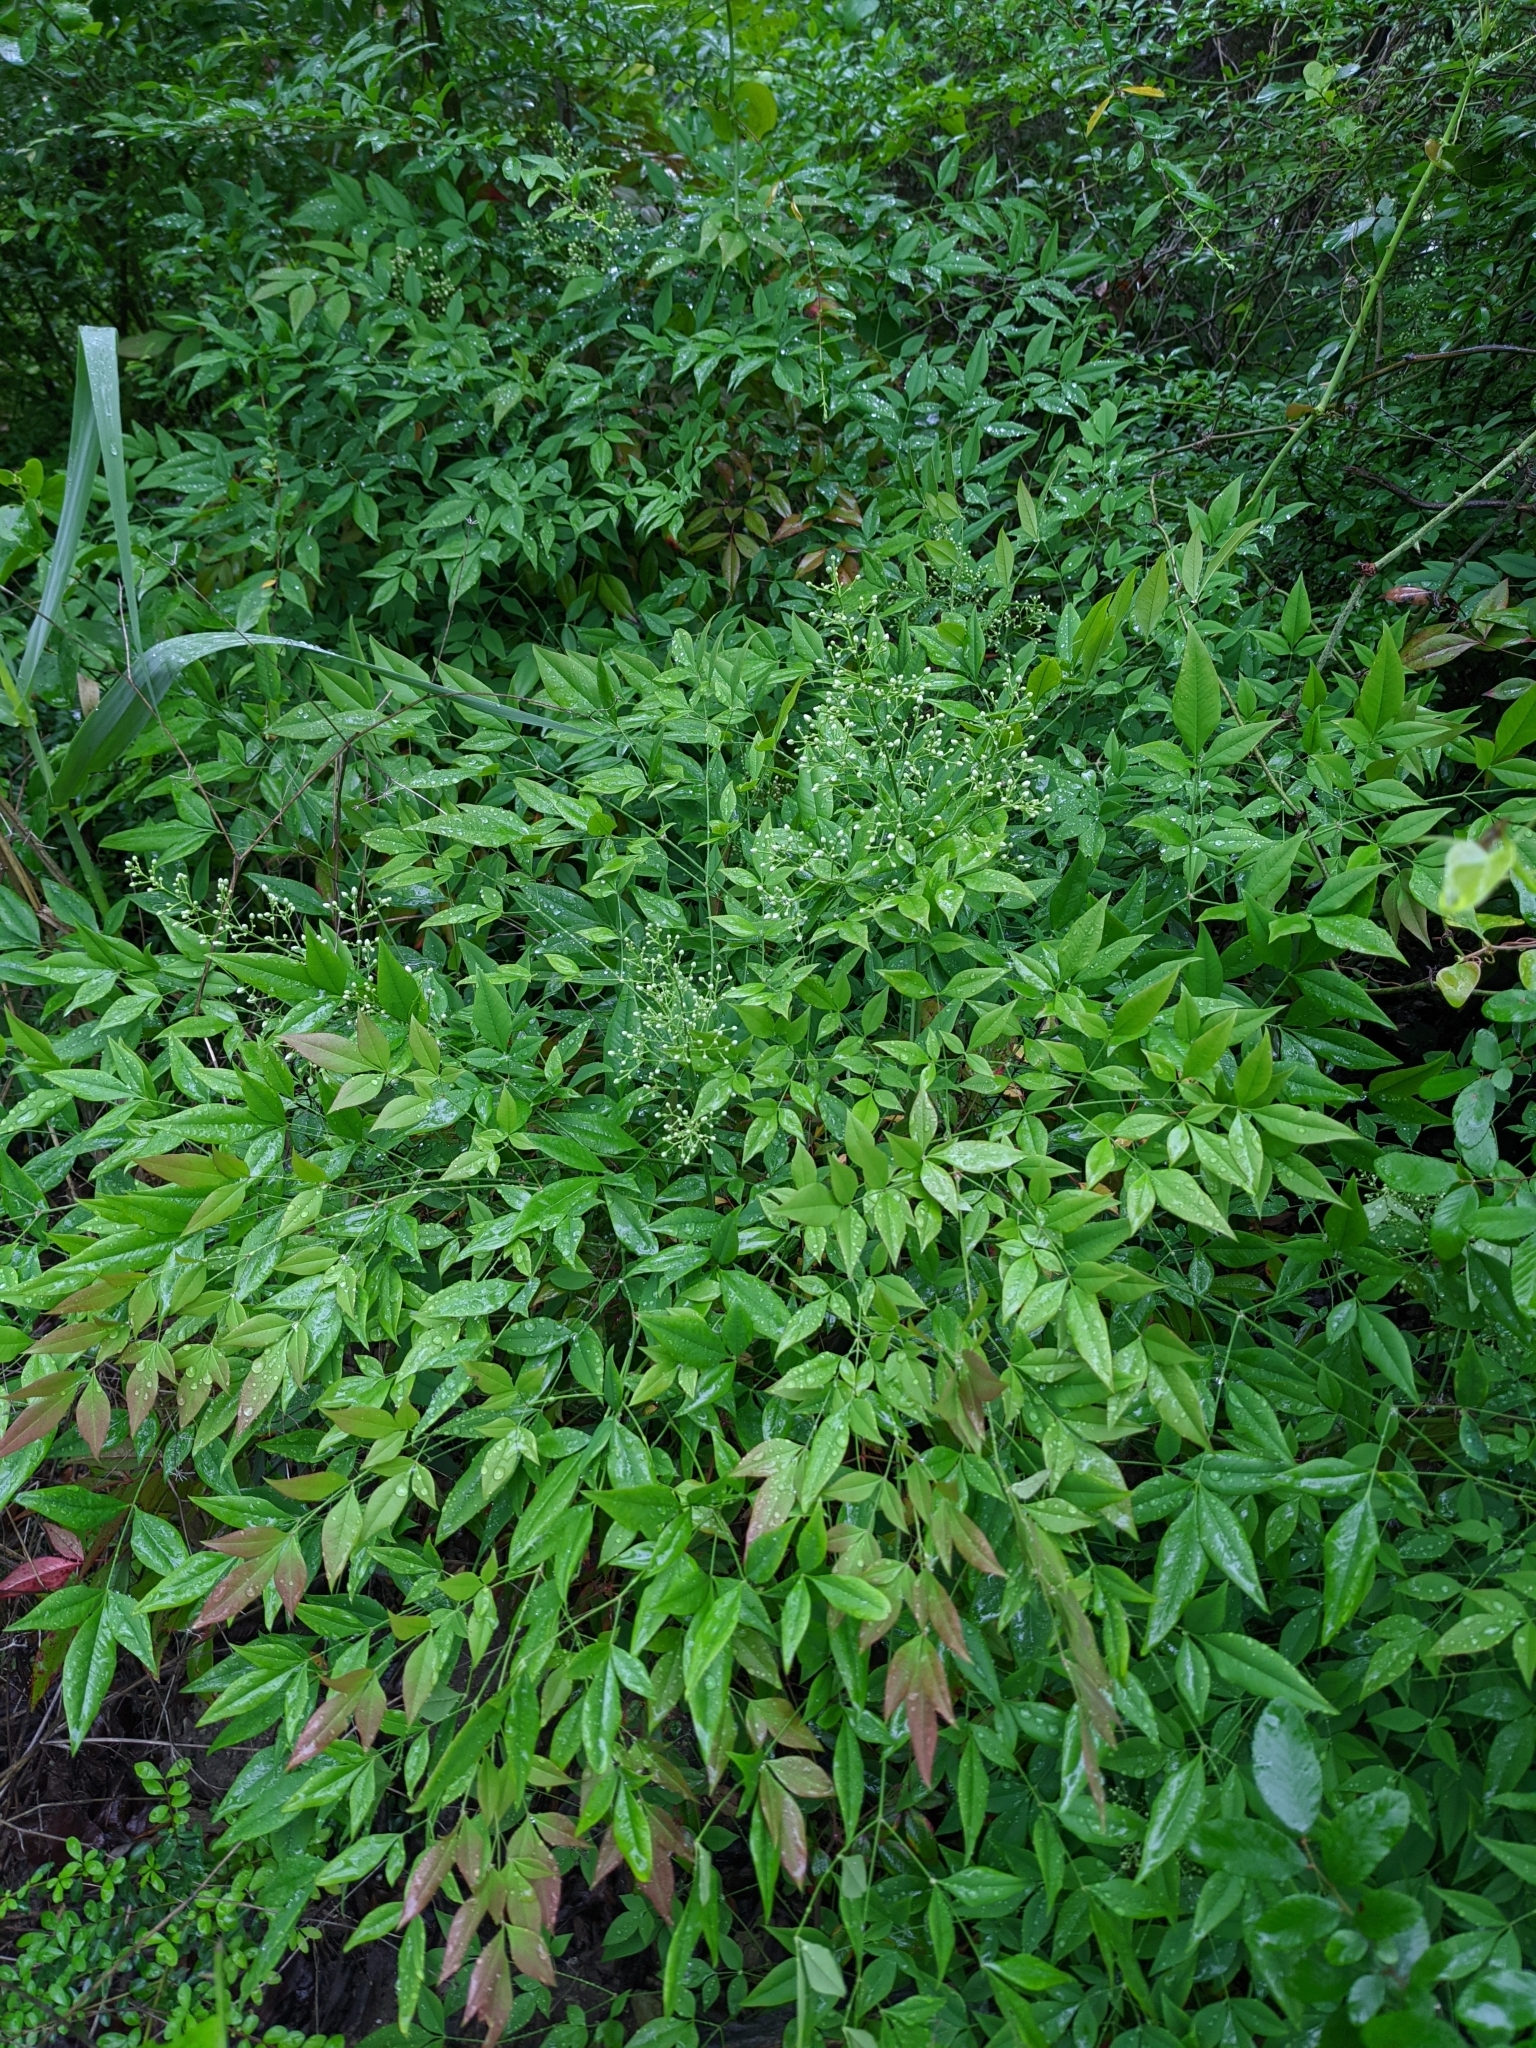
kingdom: Plantae
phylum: Tracheophyta
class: Magnoliopsida
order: Ranunculales
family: Berberidaceae
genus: Nandina
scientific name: Nandina domestica
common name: Sacred bamboo
